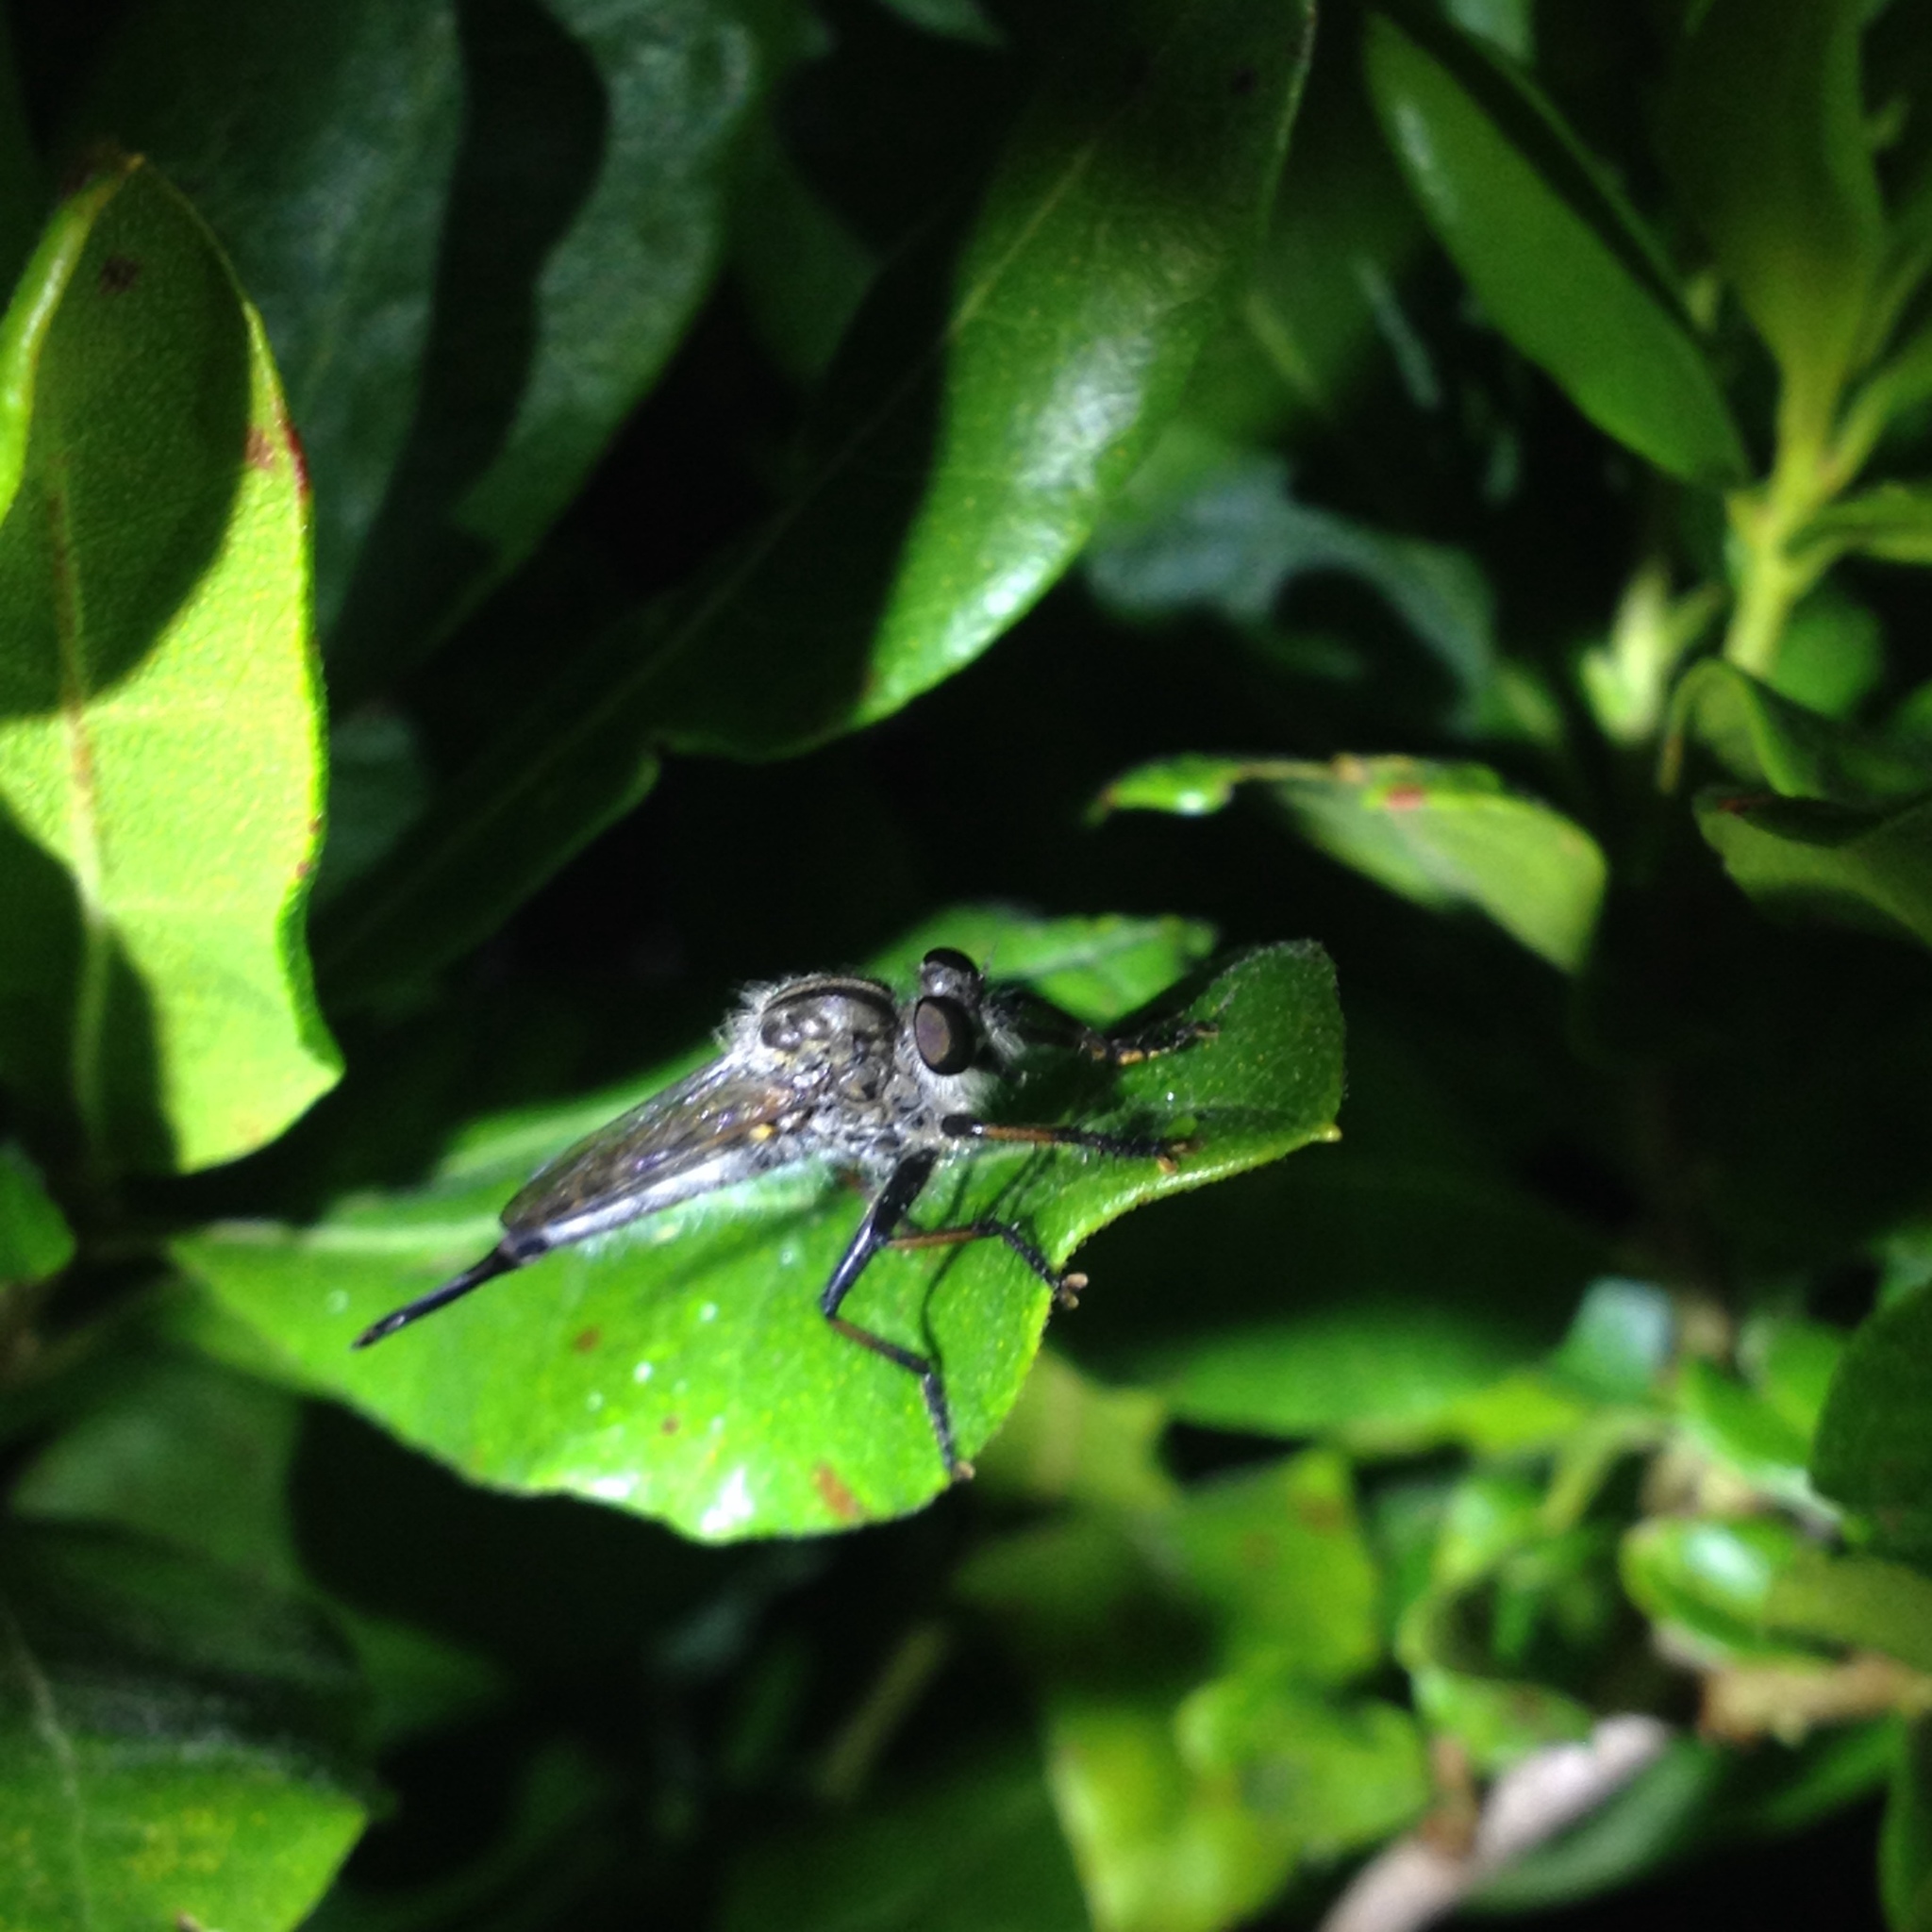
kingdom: Animalia
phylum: Arthropoda
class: Insecta
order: Diptera
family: Asilidae
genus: Efferia
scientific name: Efferia aestuans
